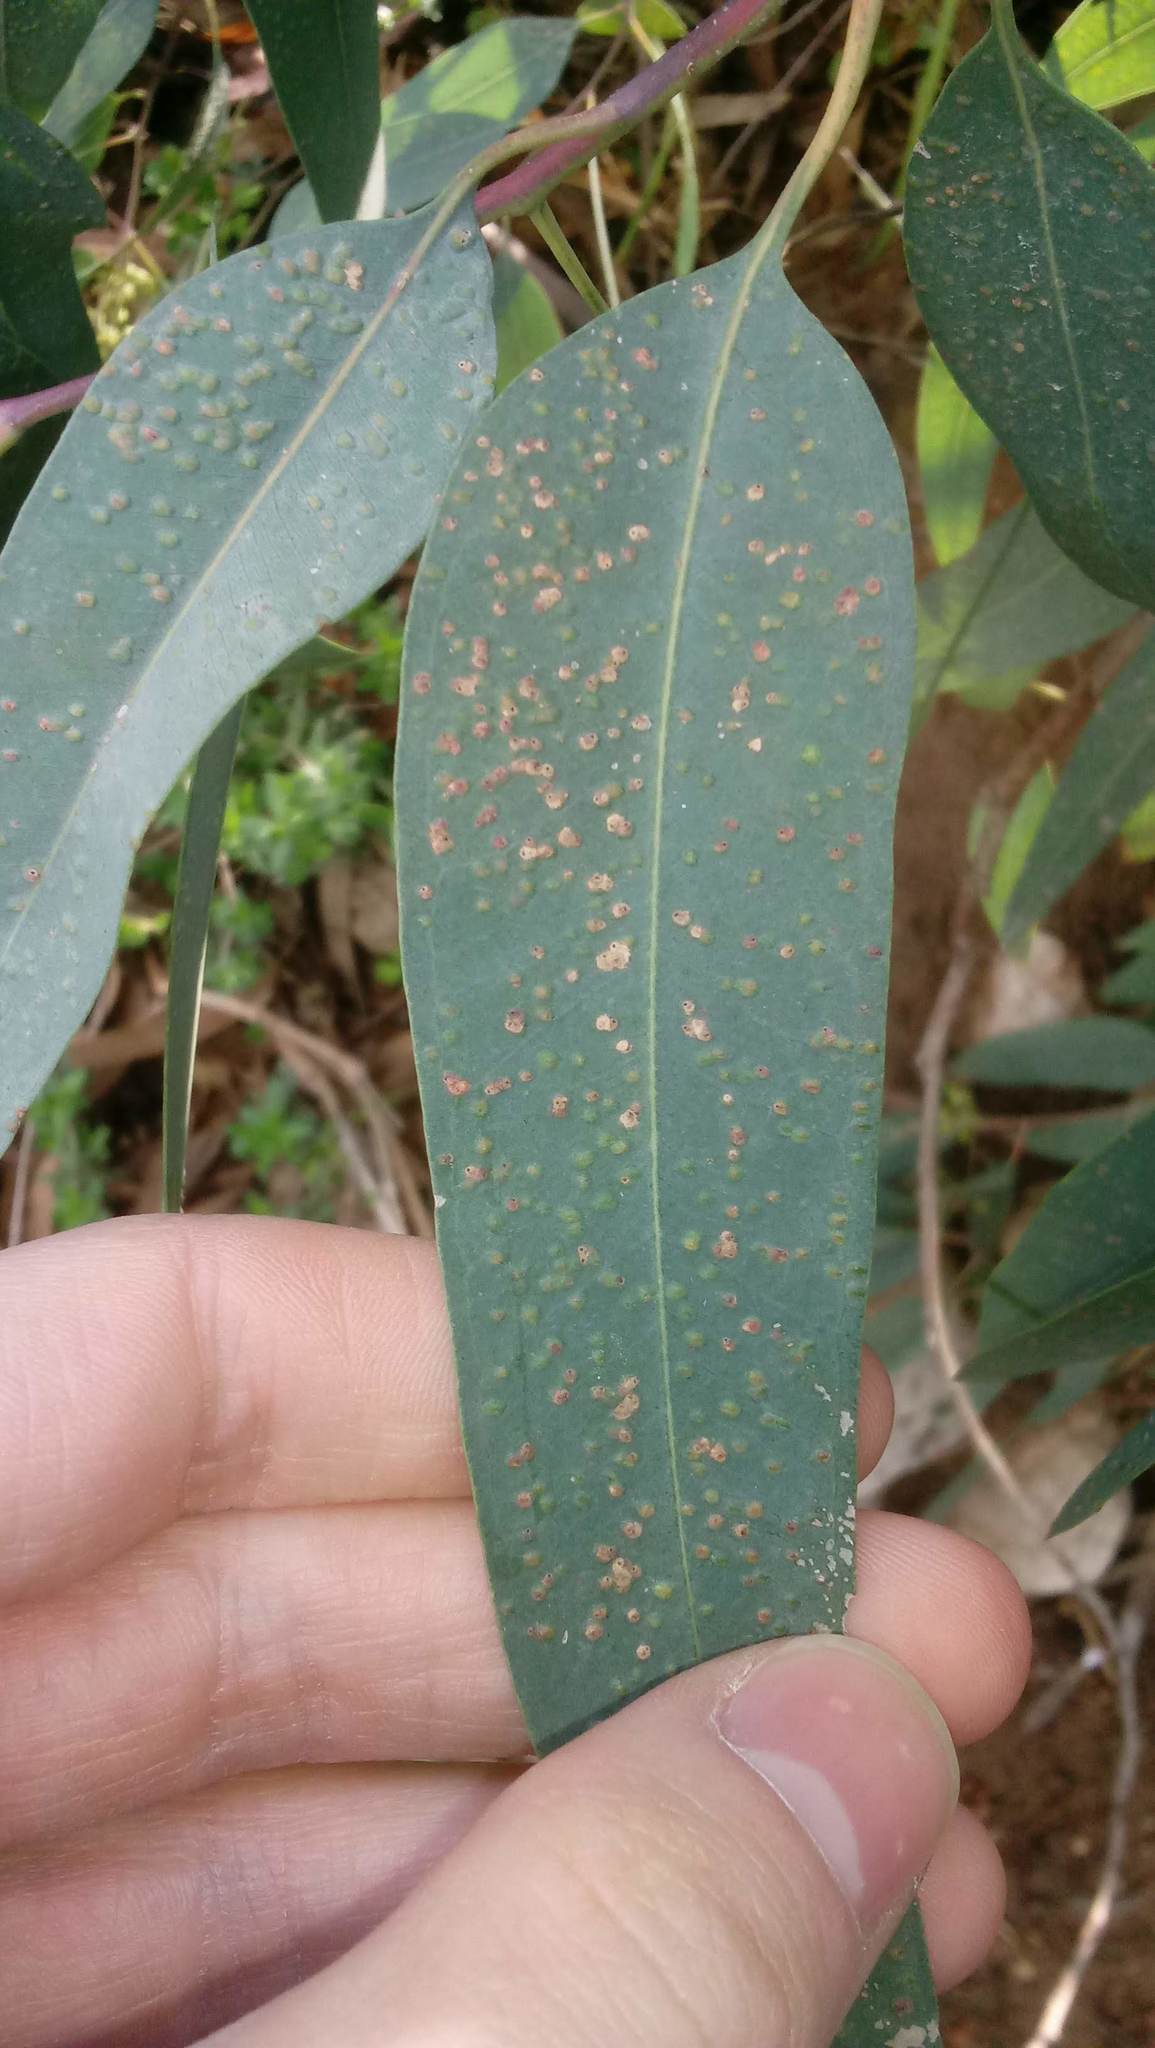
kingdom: Animalia
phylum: Arthropoda
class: Insecta
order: Hymenoptera
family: Eulophidae
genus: Ophelimus
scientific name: Ophelimus maskelli
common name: Gall wasp
